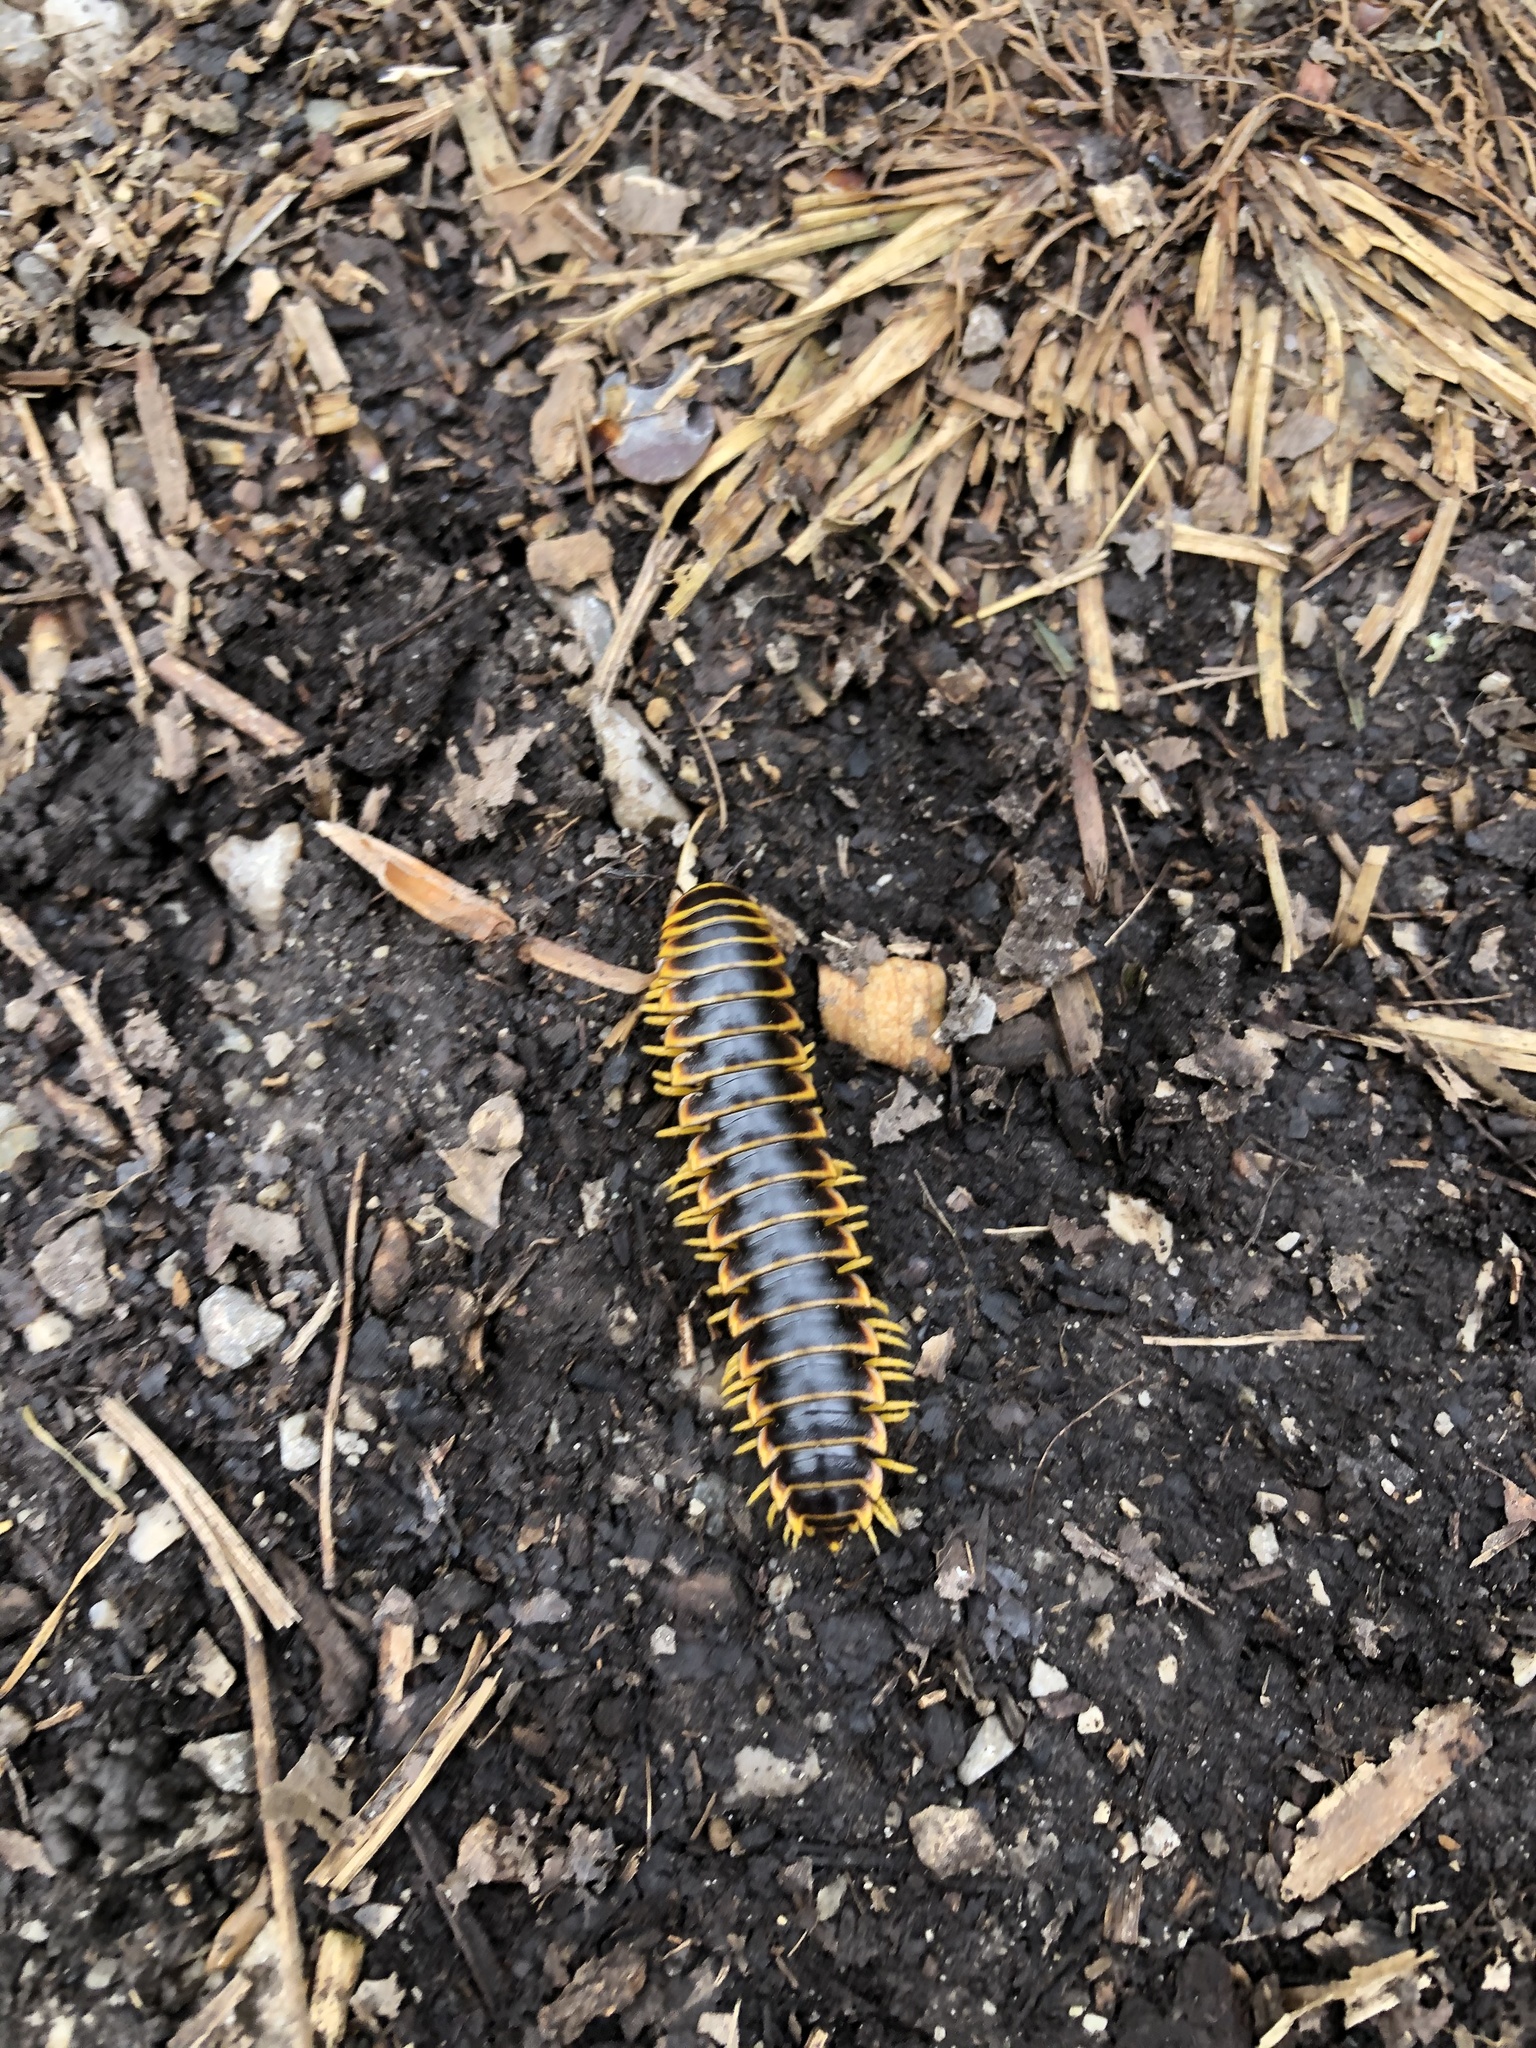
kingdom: Animalia
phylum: Arthropoda
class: Diplopoda
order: Polydesmida
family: Xystodesmidae
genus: Apheloria
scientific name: Apheloria virginiensis
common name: Black-and-gold flat millipede
